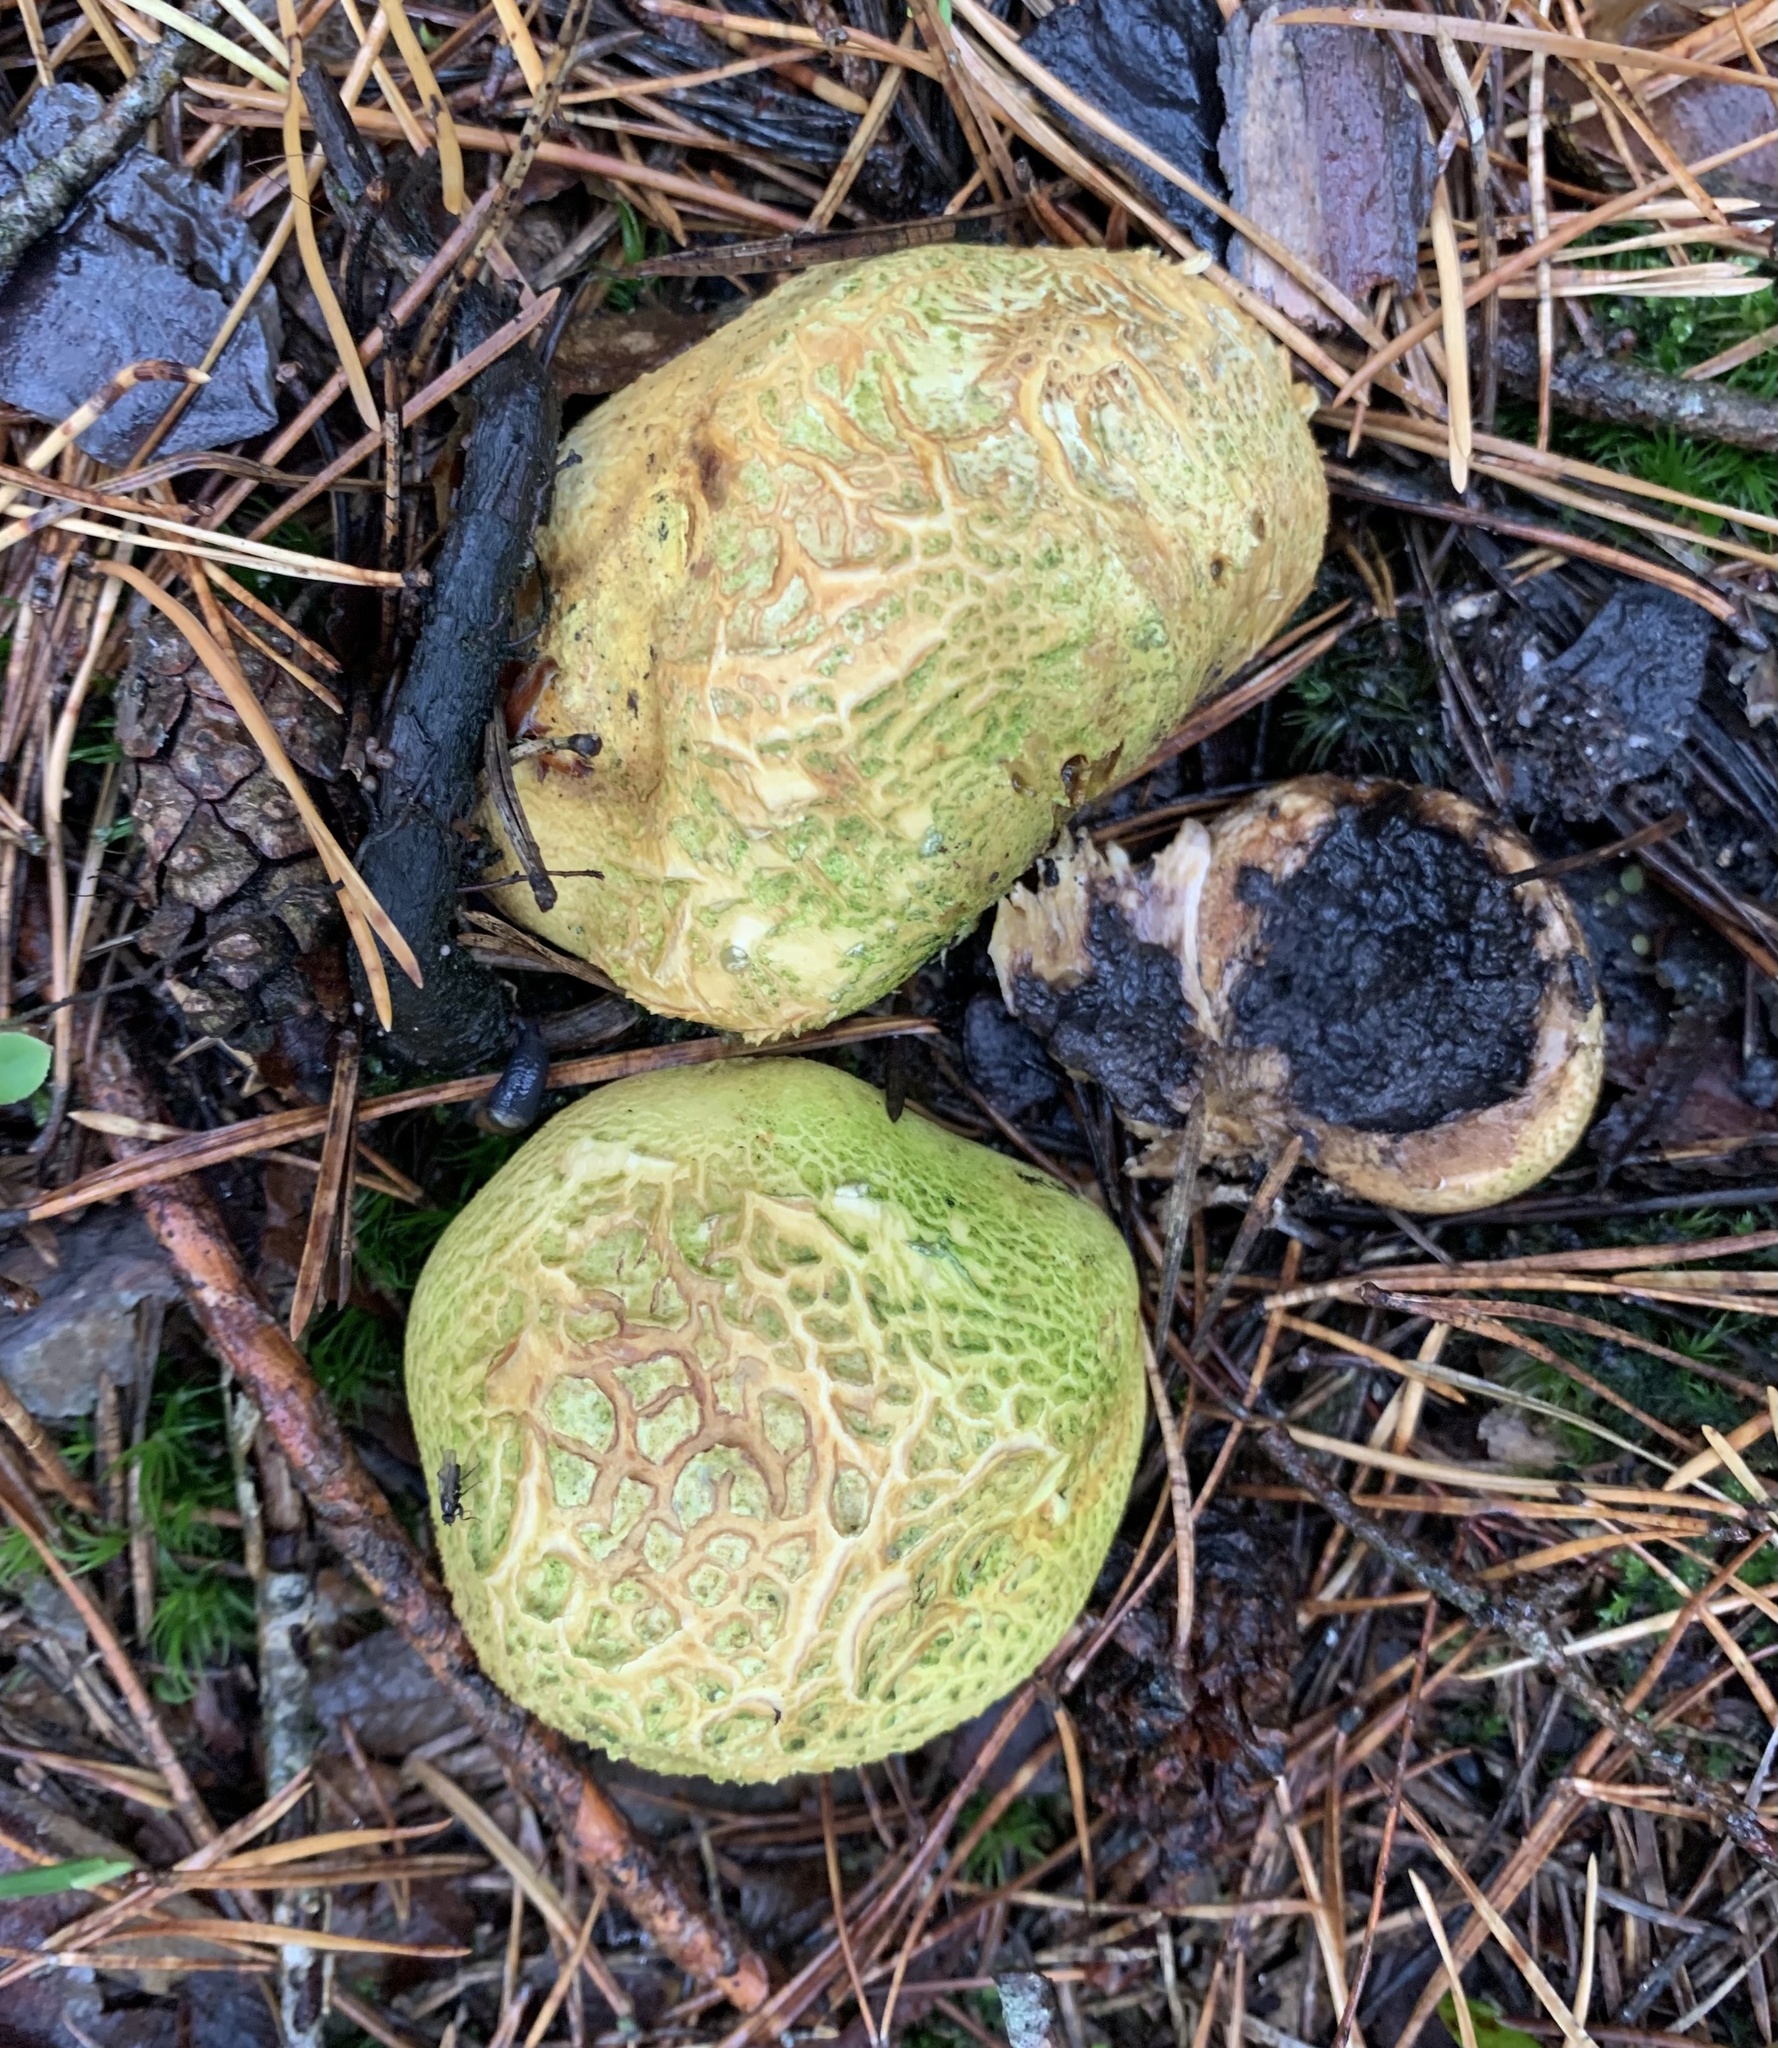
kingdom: Fungi
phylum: Basidiomycota
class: Agaricomycetes
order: Boletales
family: Sclerodermataceae
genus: Scleroderma
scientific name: Scleroderma citrinum
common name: Common earthball
